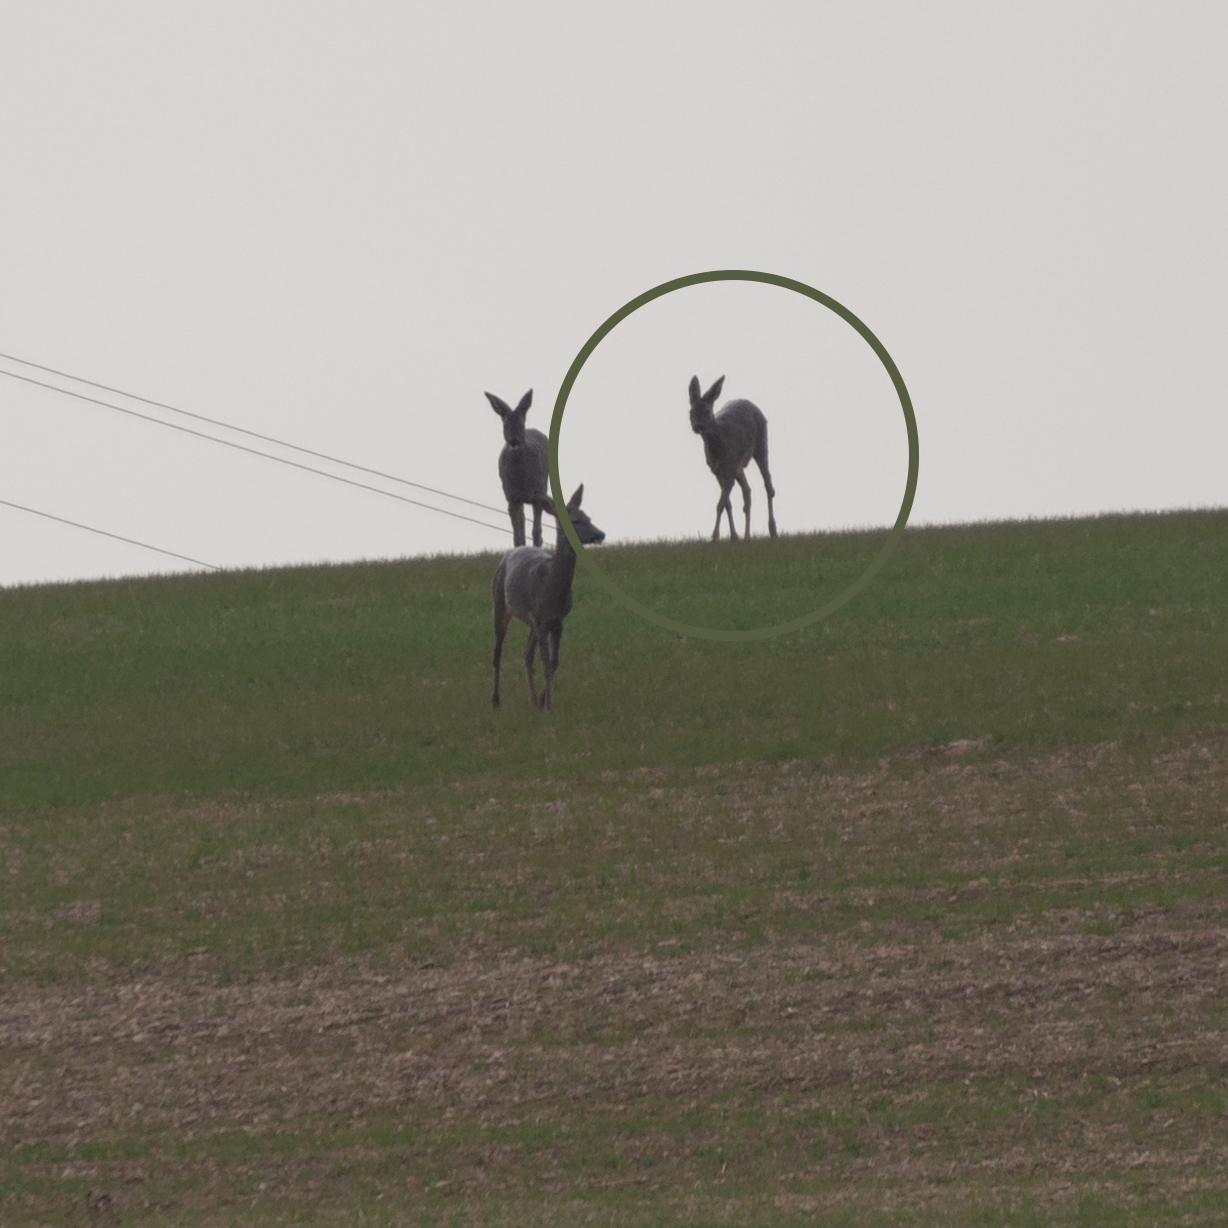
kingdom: Animalia
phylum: Chordata
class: Mammalia
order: Artiodactyla
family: Cervidae
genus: Capreolus
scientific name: Capreolus capreolus
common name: Western roe deer
